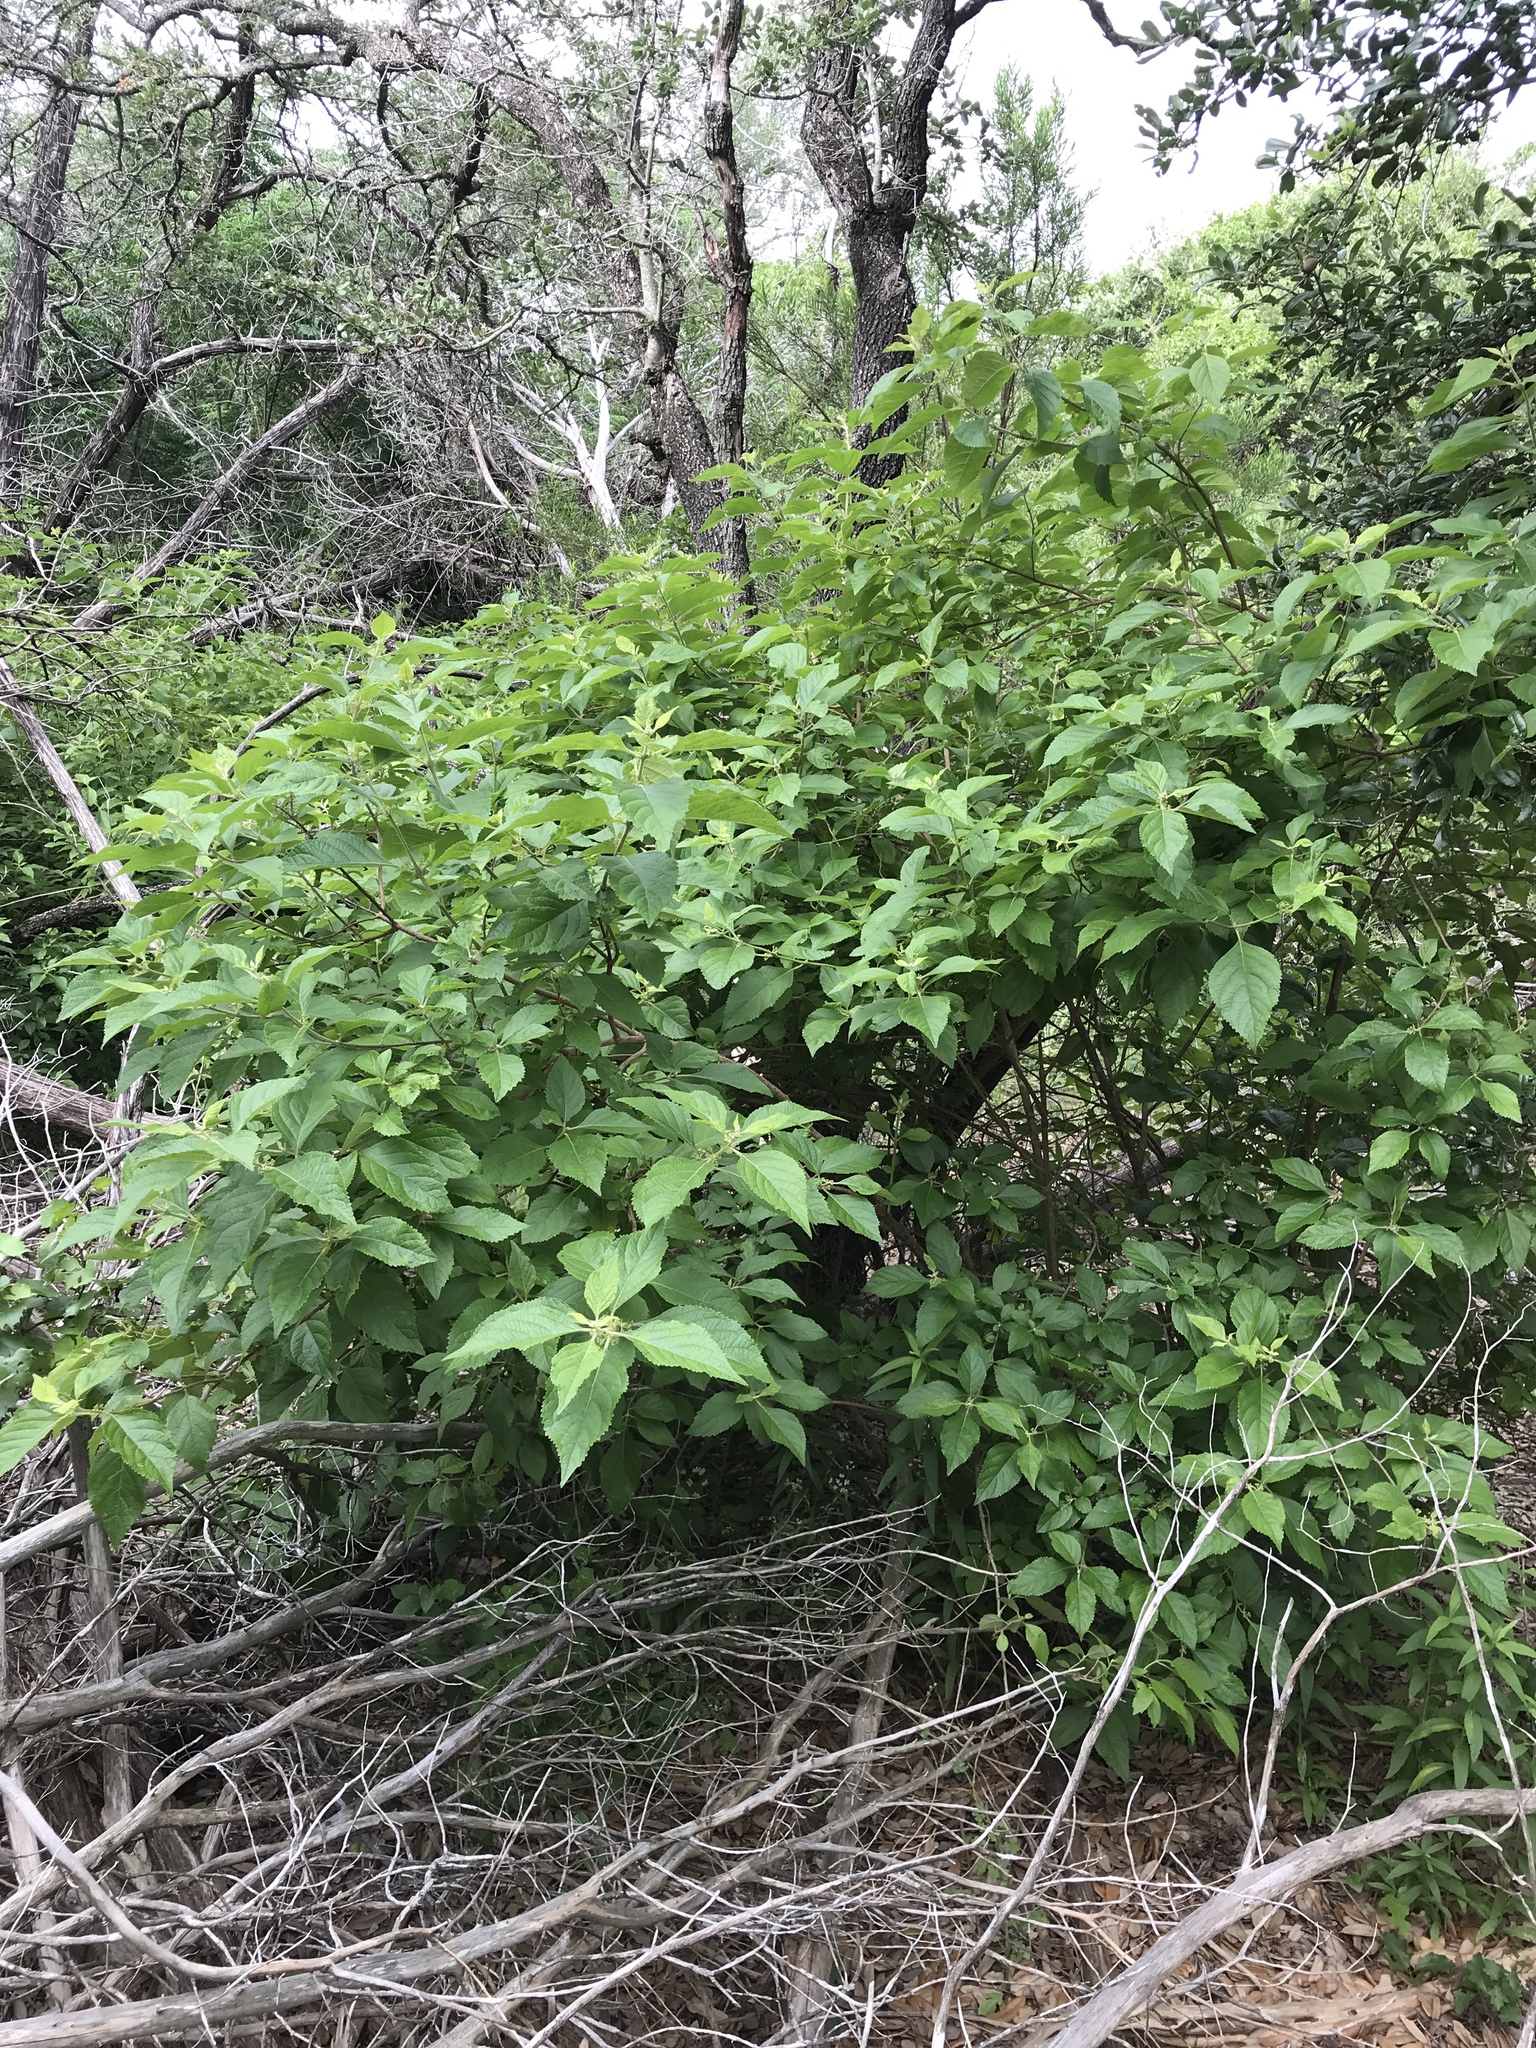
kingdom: Plantae
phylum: Tracheophyta
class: Magnoliopsida
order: Lamiales
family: Lamiaceae
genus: Callicarpa
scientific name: Callicarpa americana
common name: American beautyberry
